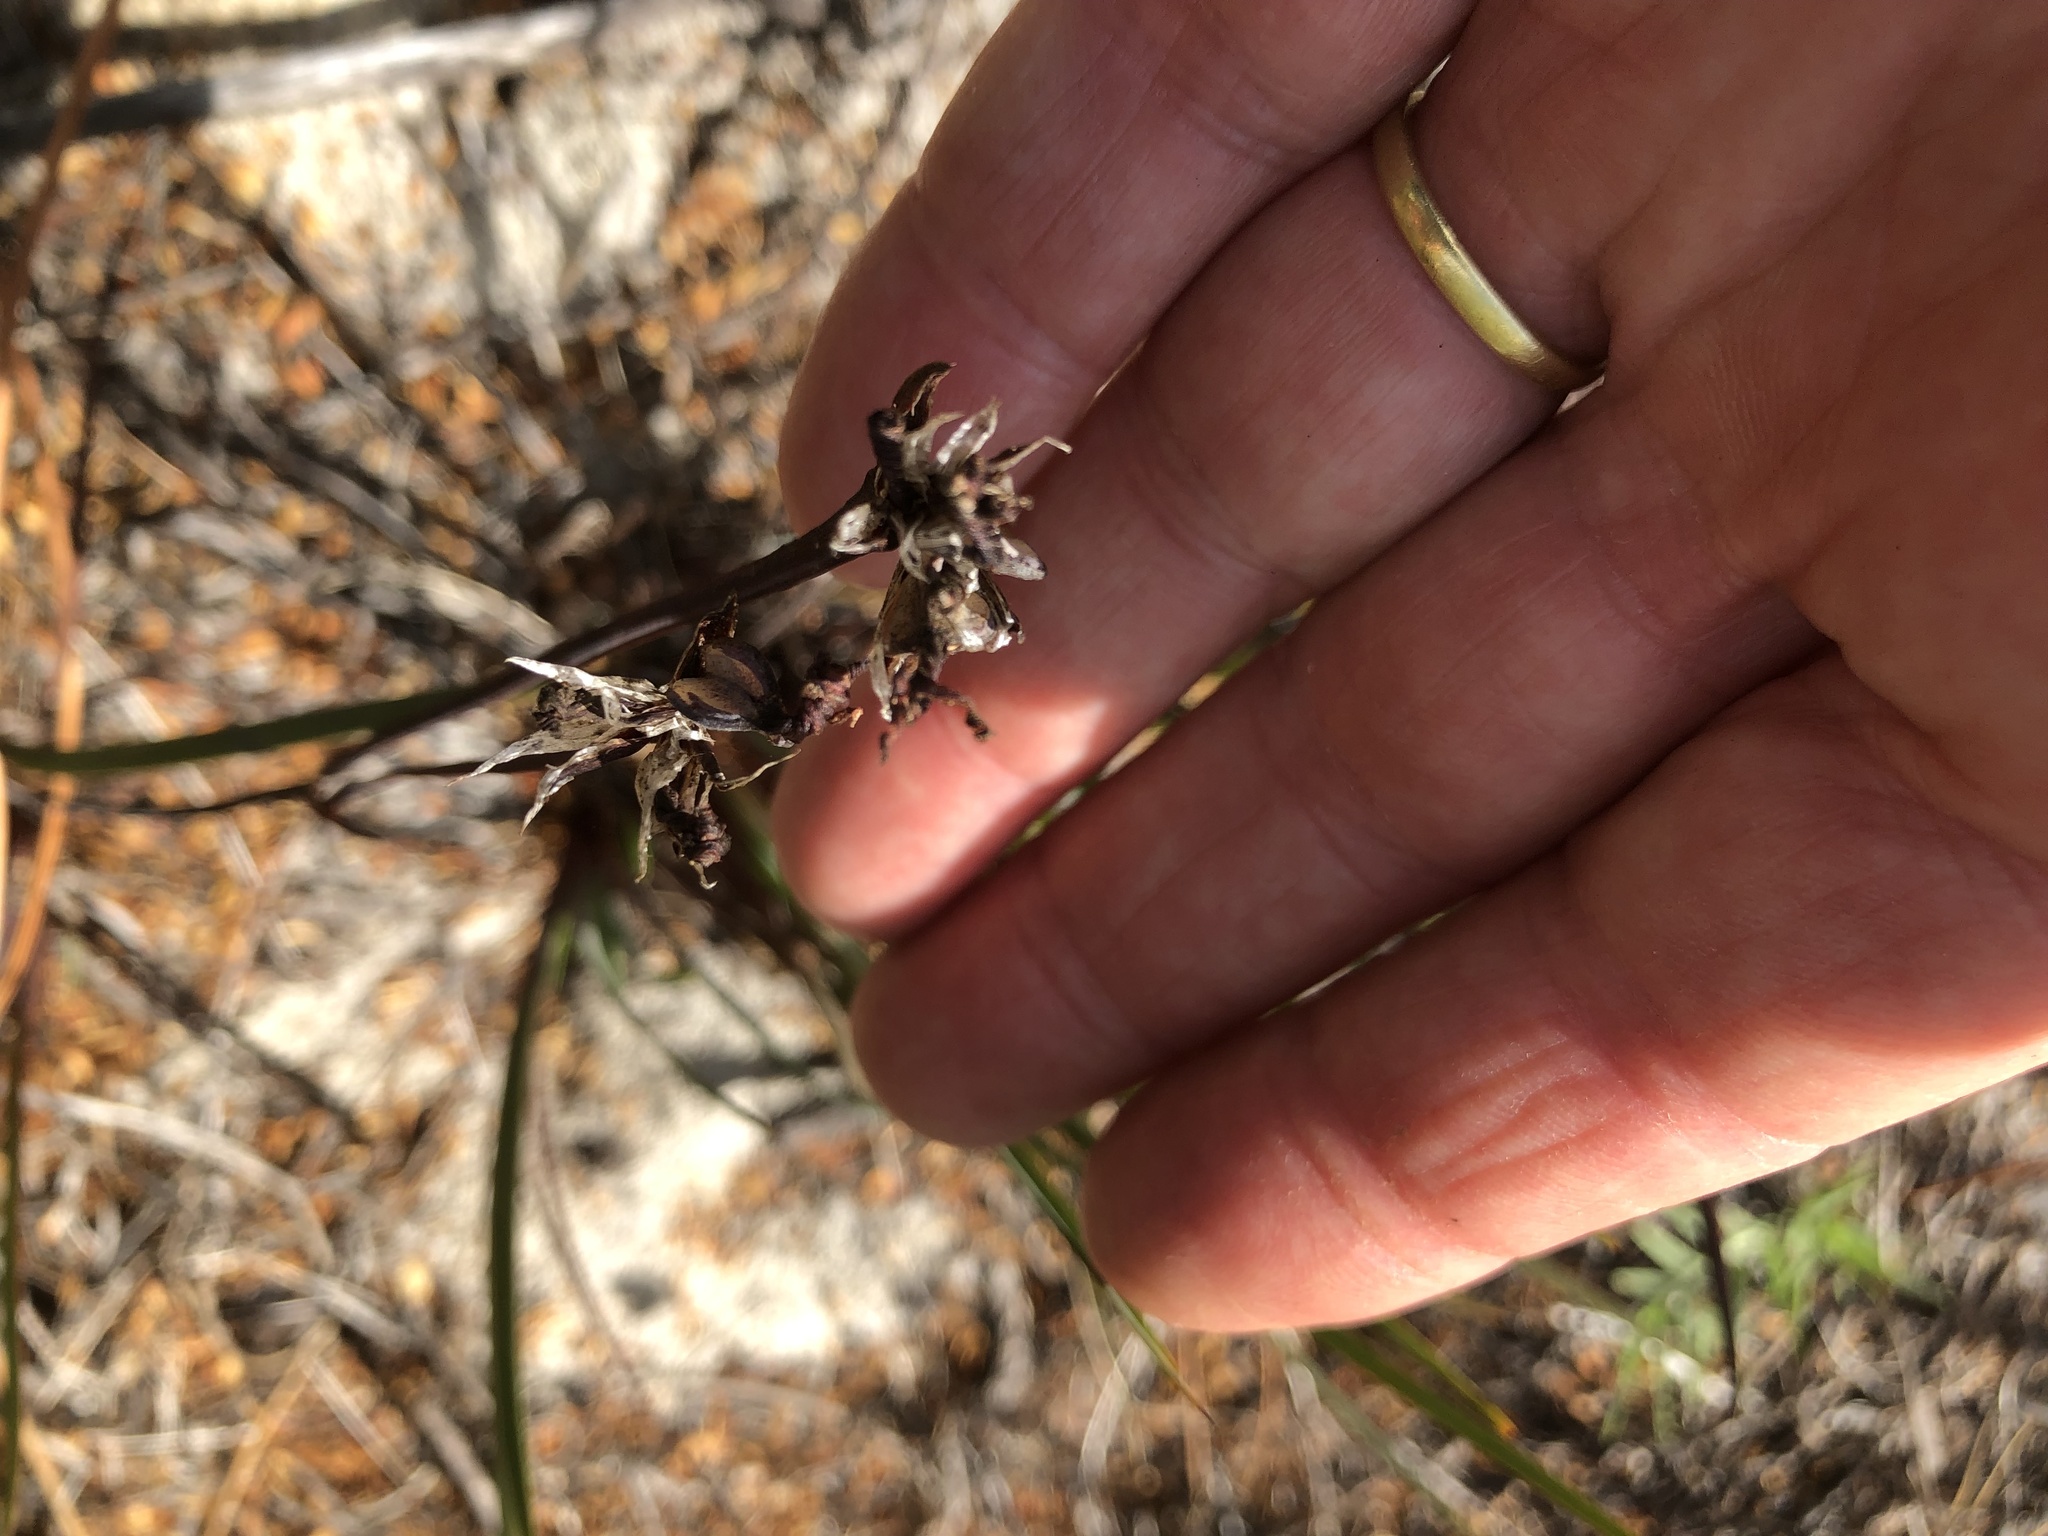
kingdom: Plantae
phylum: Tracheophyta
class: Liliopsida
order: Asparagales
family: Iridaceae
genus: Aristea
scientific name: Aristea dichotoma
